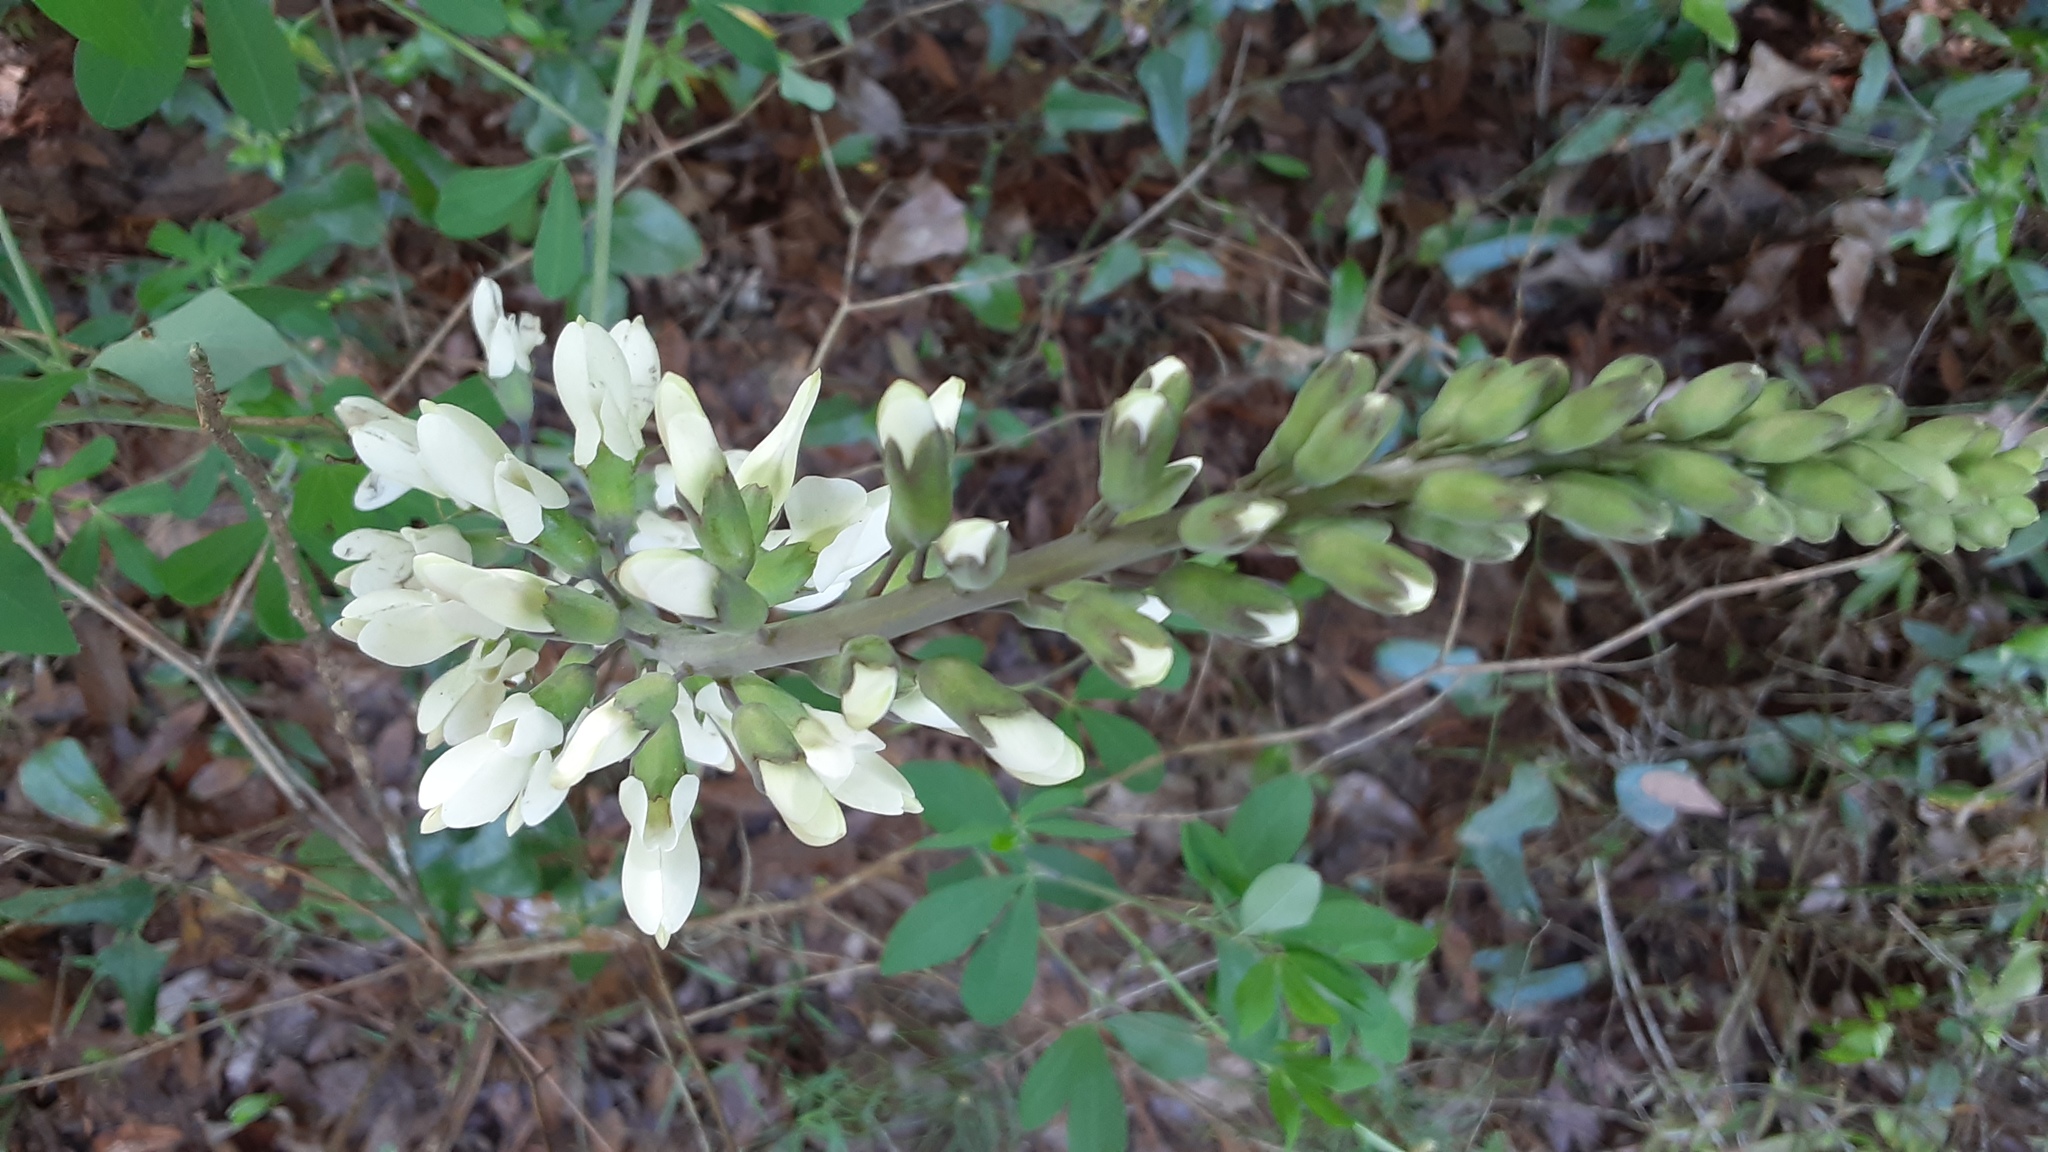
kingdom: Plantae
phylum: Tracheophyta
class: Magnoliopsida
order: Fabales
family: Fabaceae
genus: Baptisia
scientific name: Baptisia alba
